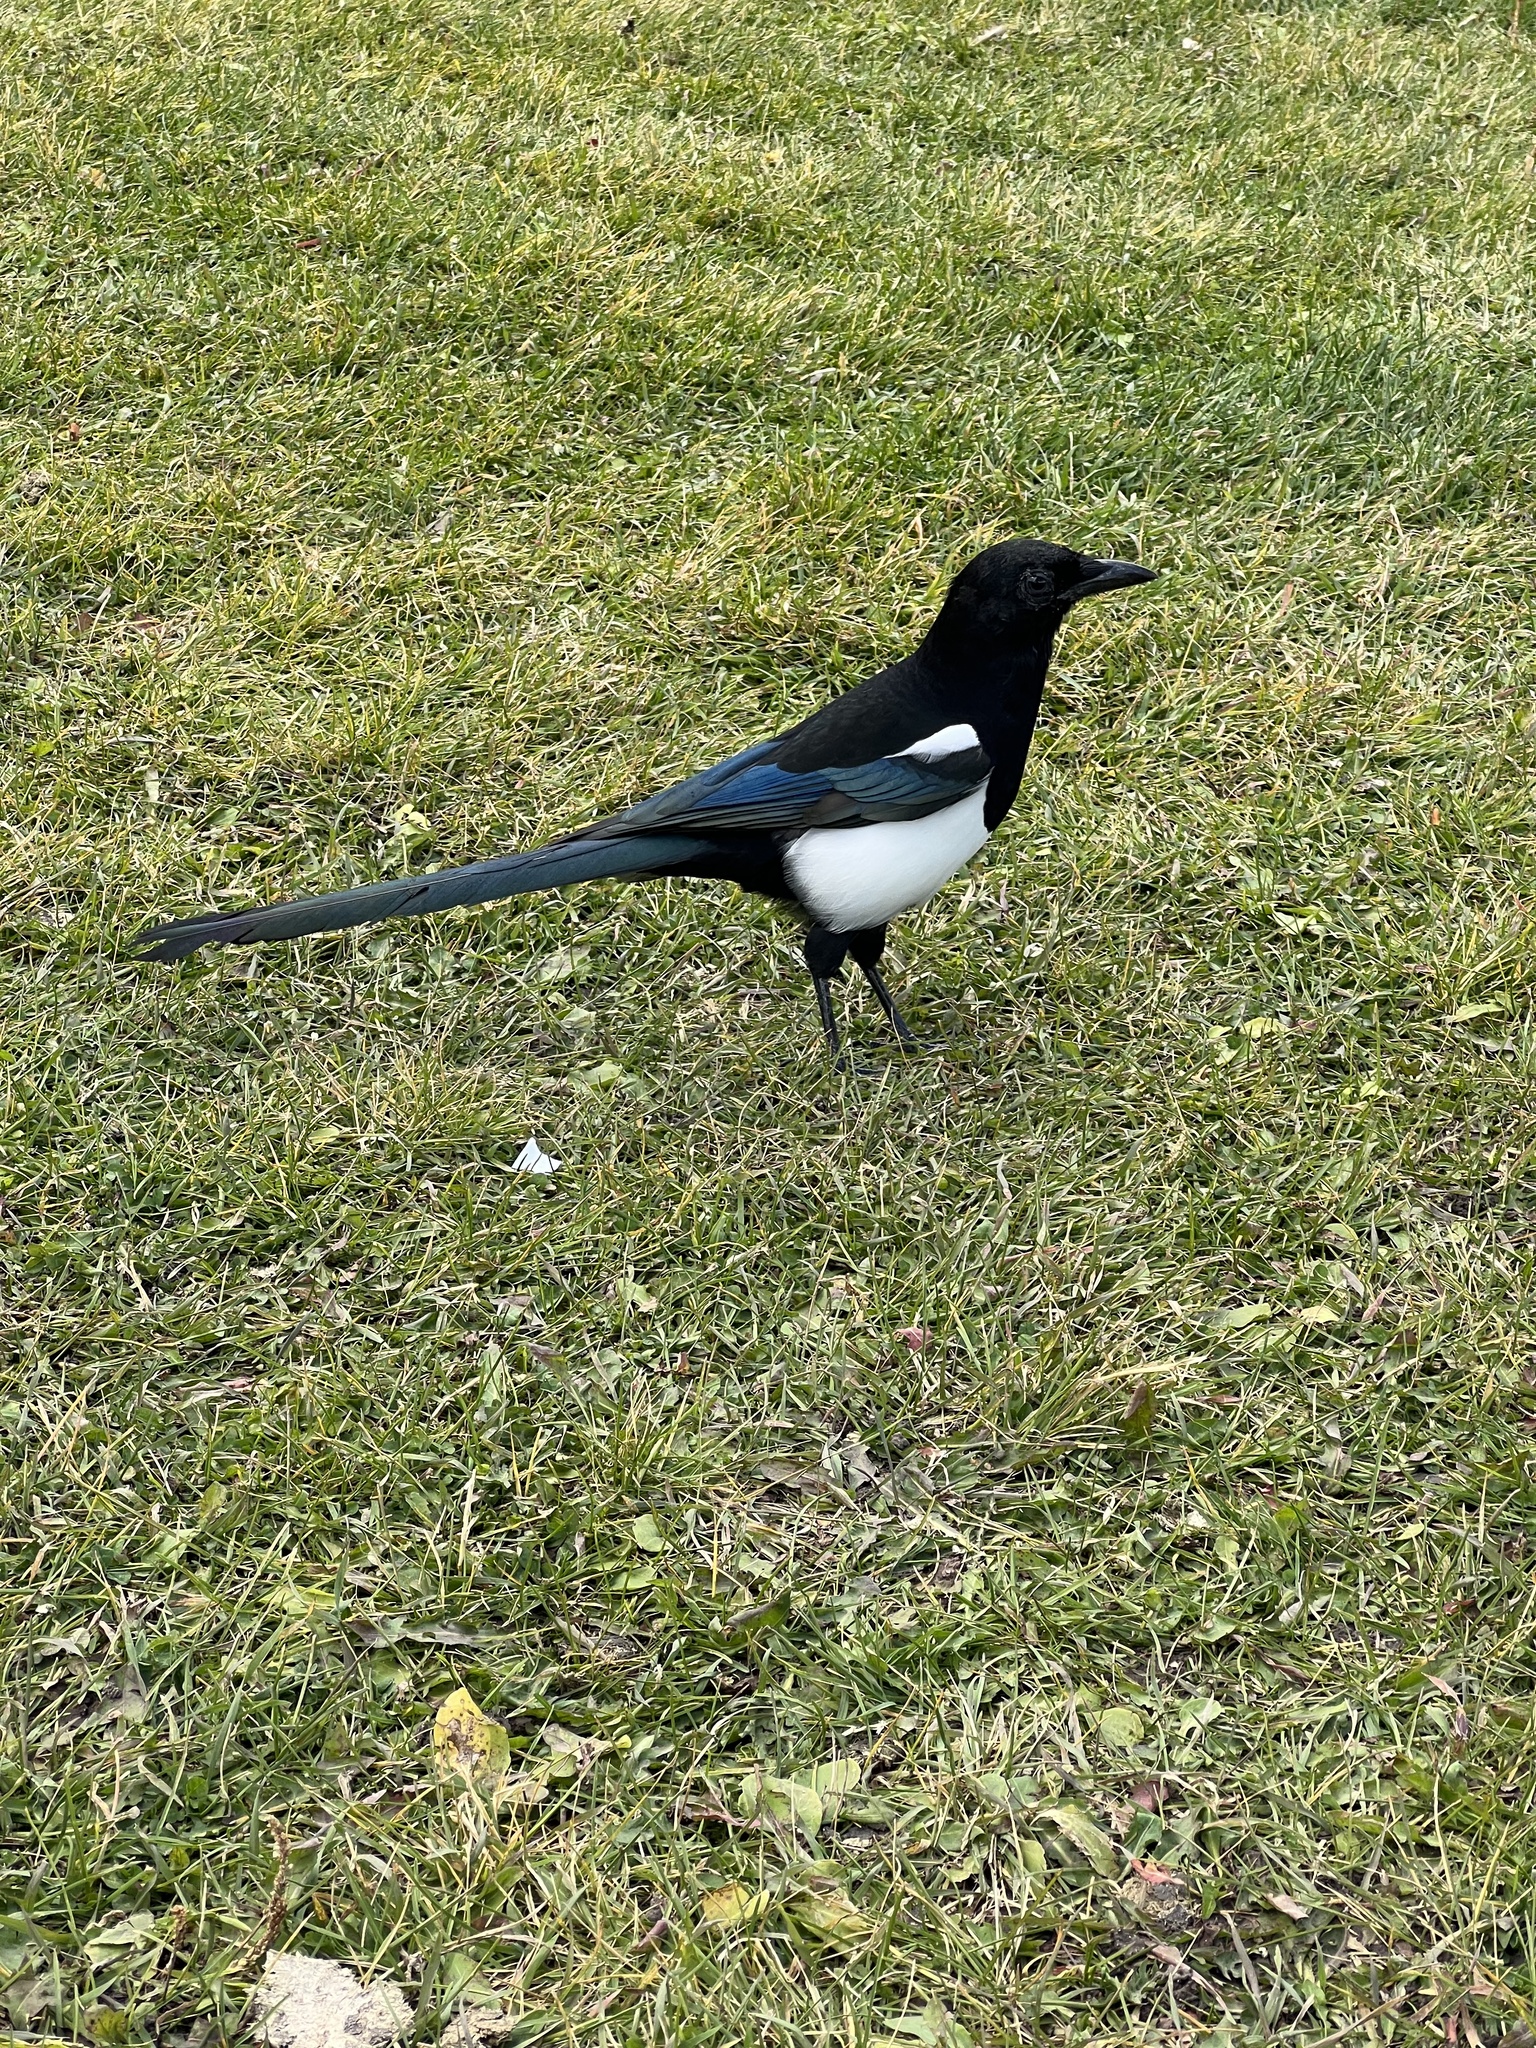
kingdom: Animalia
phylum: Chordata
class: Aves
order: Passeriformes
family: Corvidae
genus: Pica
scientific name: Pica hudsonia
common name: Black-billed magpie
